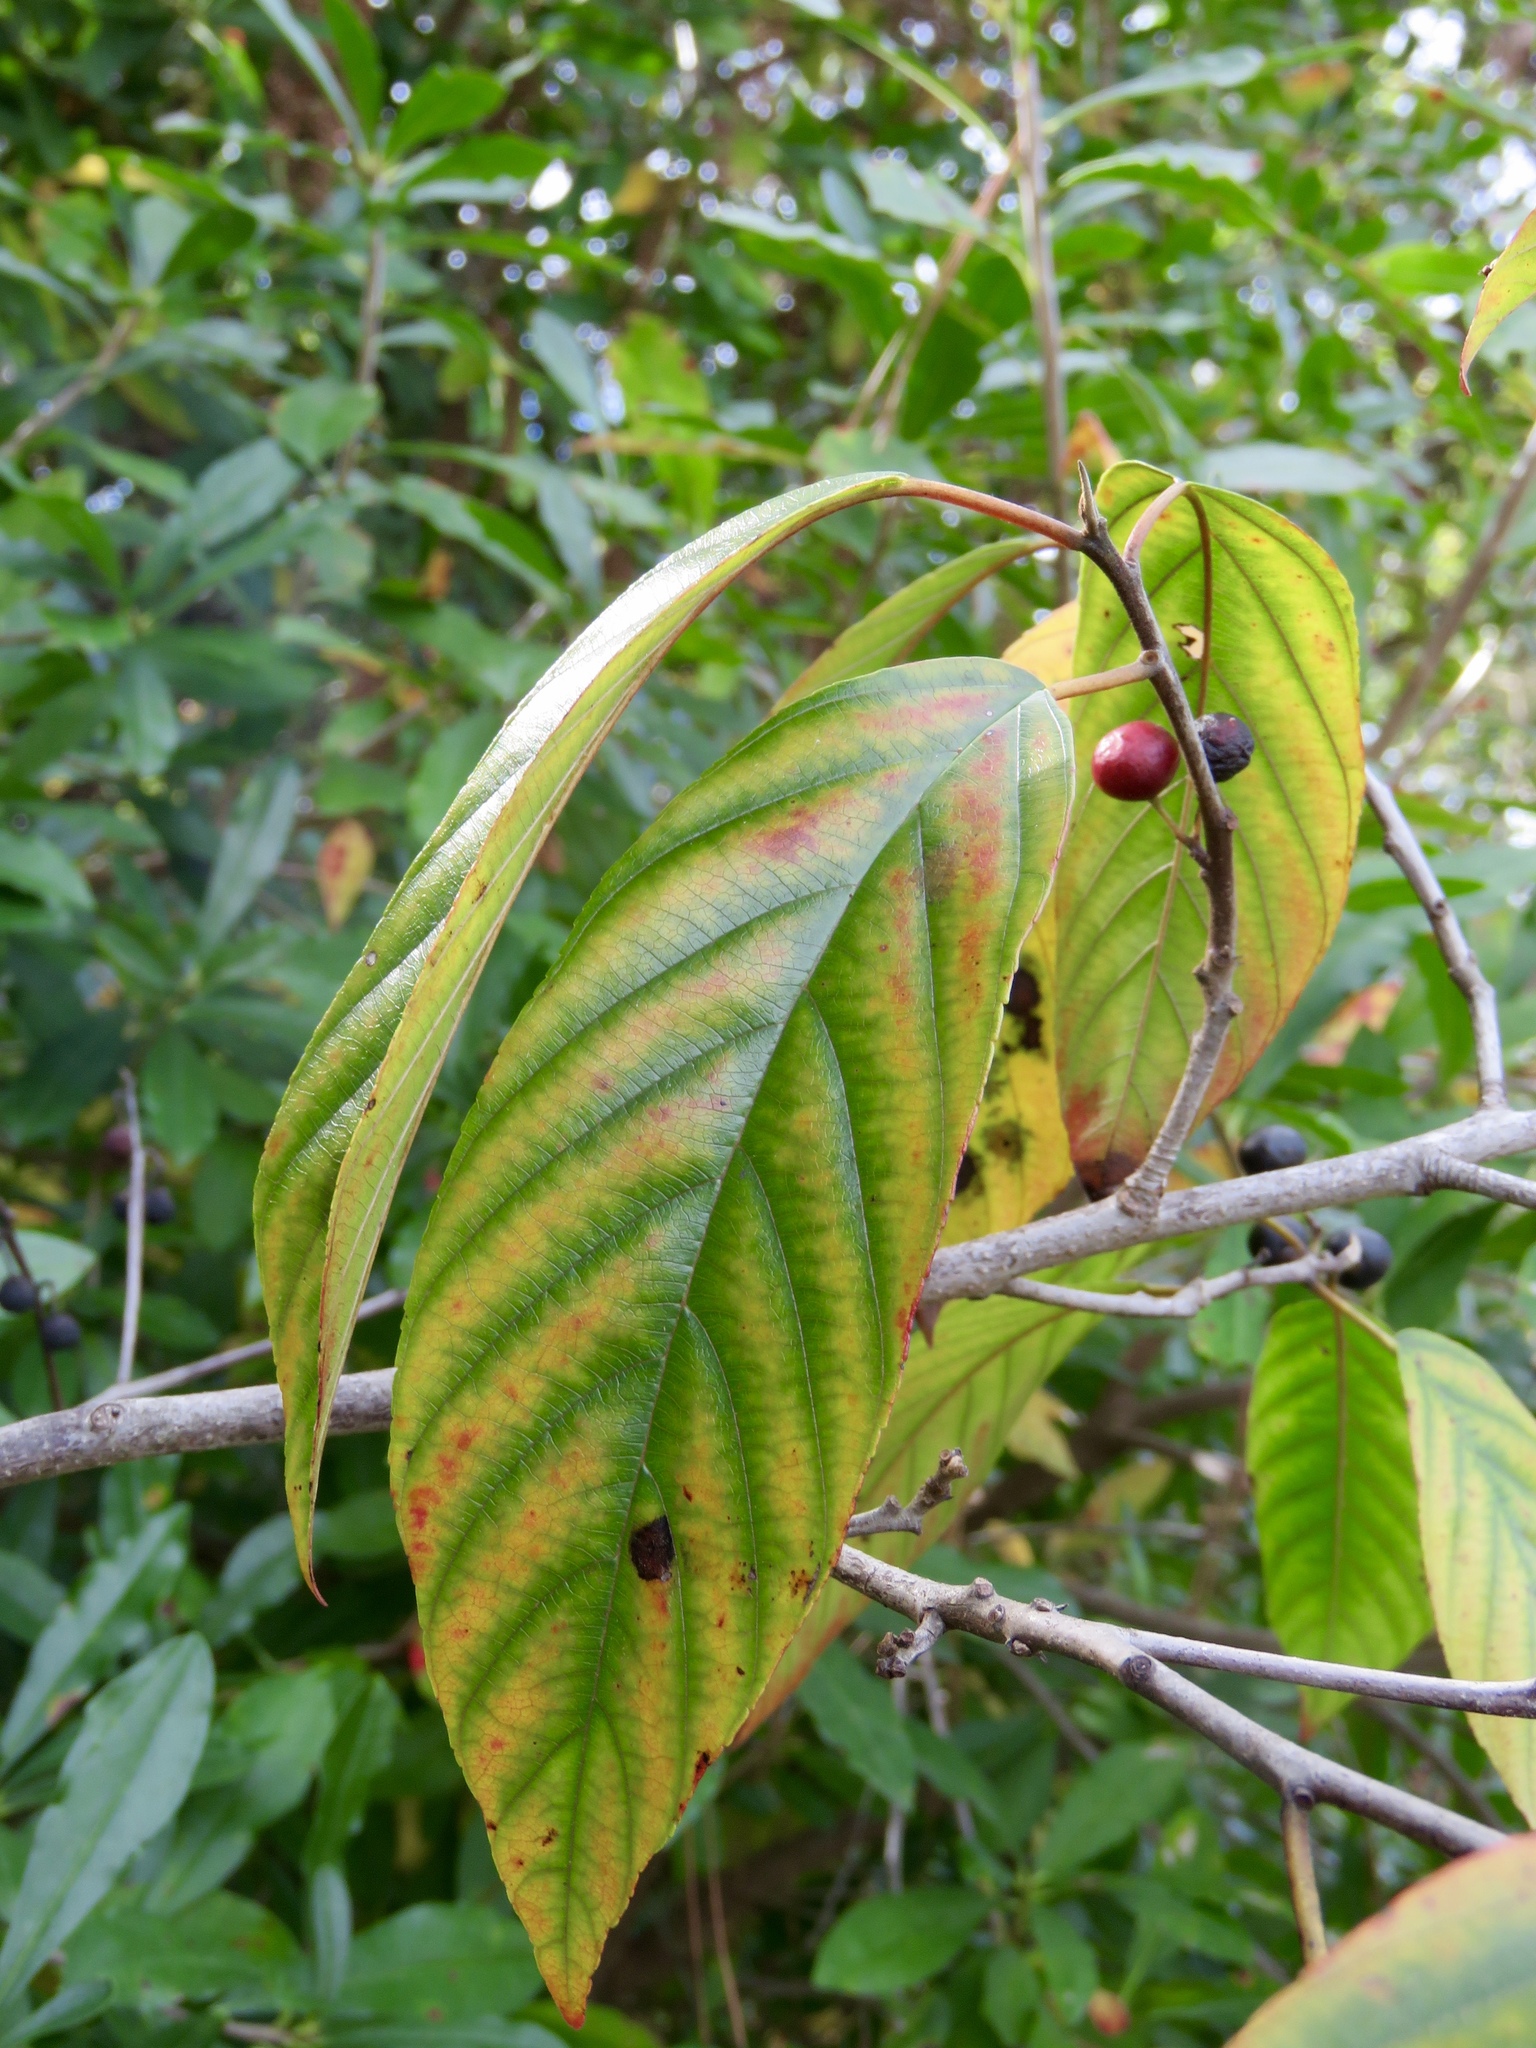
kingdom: Plantae
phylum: Tracheophyta
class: Magnoliopsida
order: Rosales
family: Rhamnaceae
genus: Frangula
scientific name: Frangula caroliniana
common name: Carolina buckthorn
